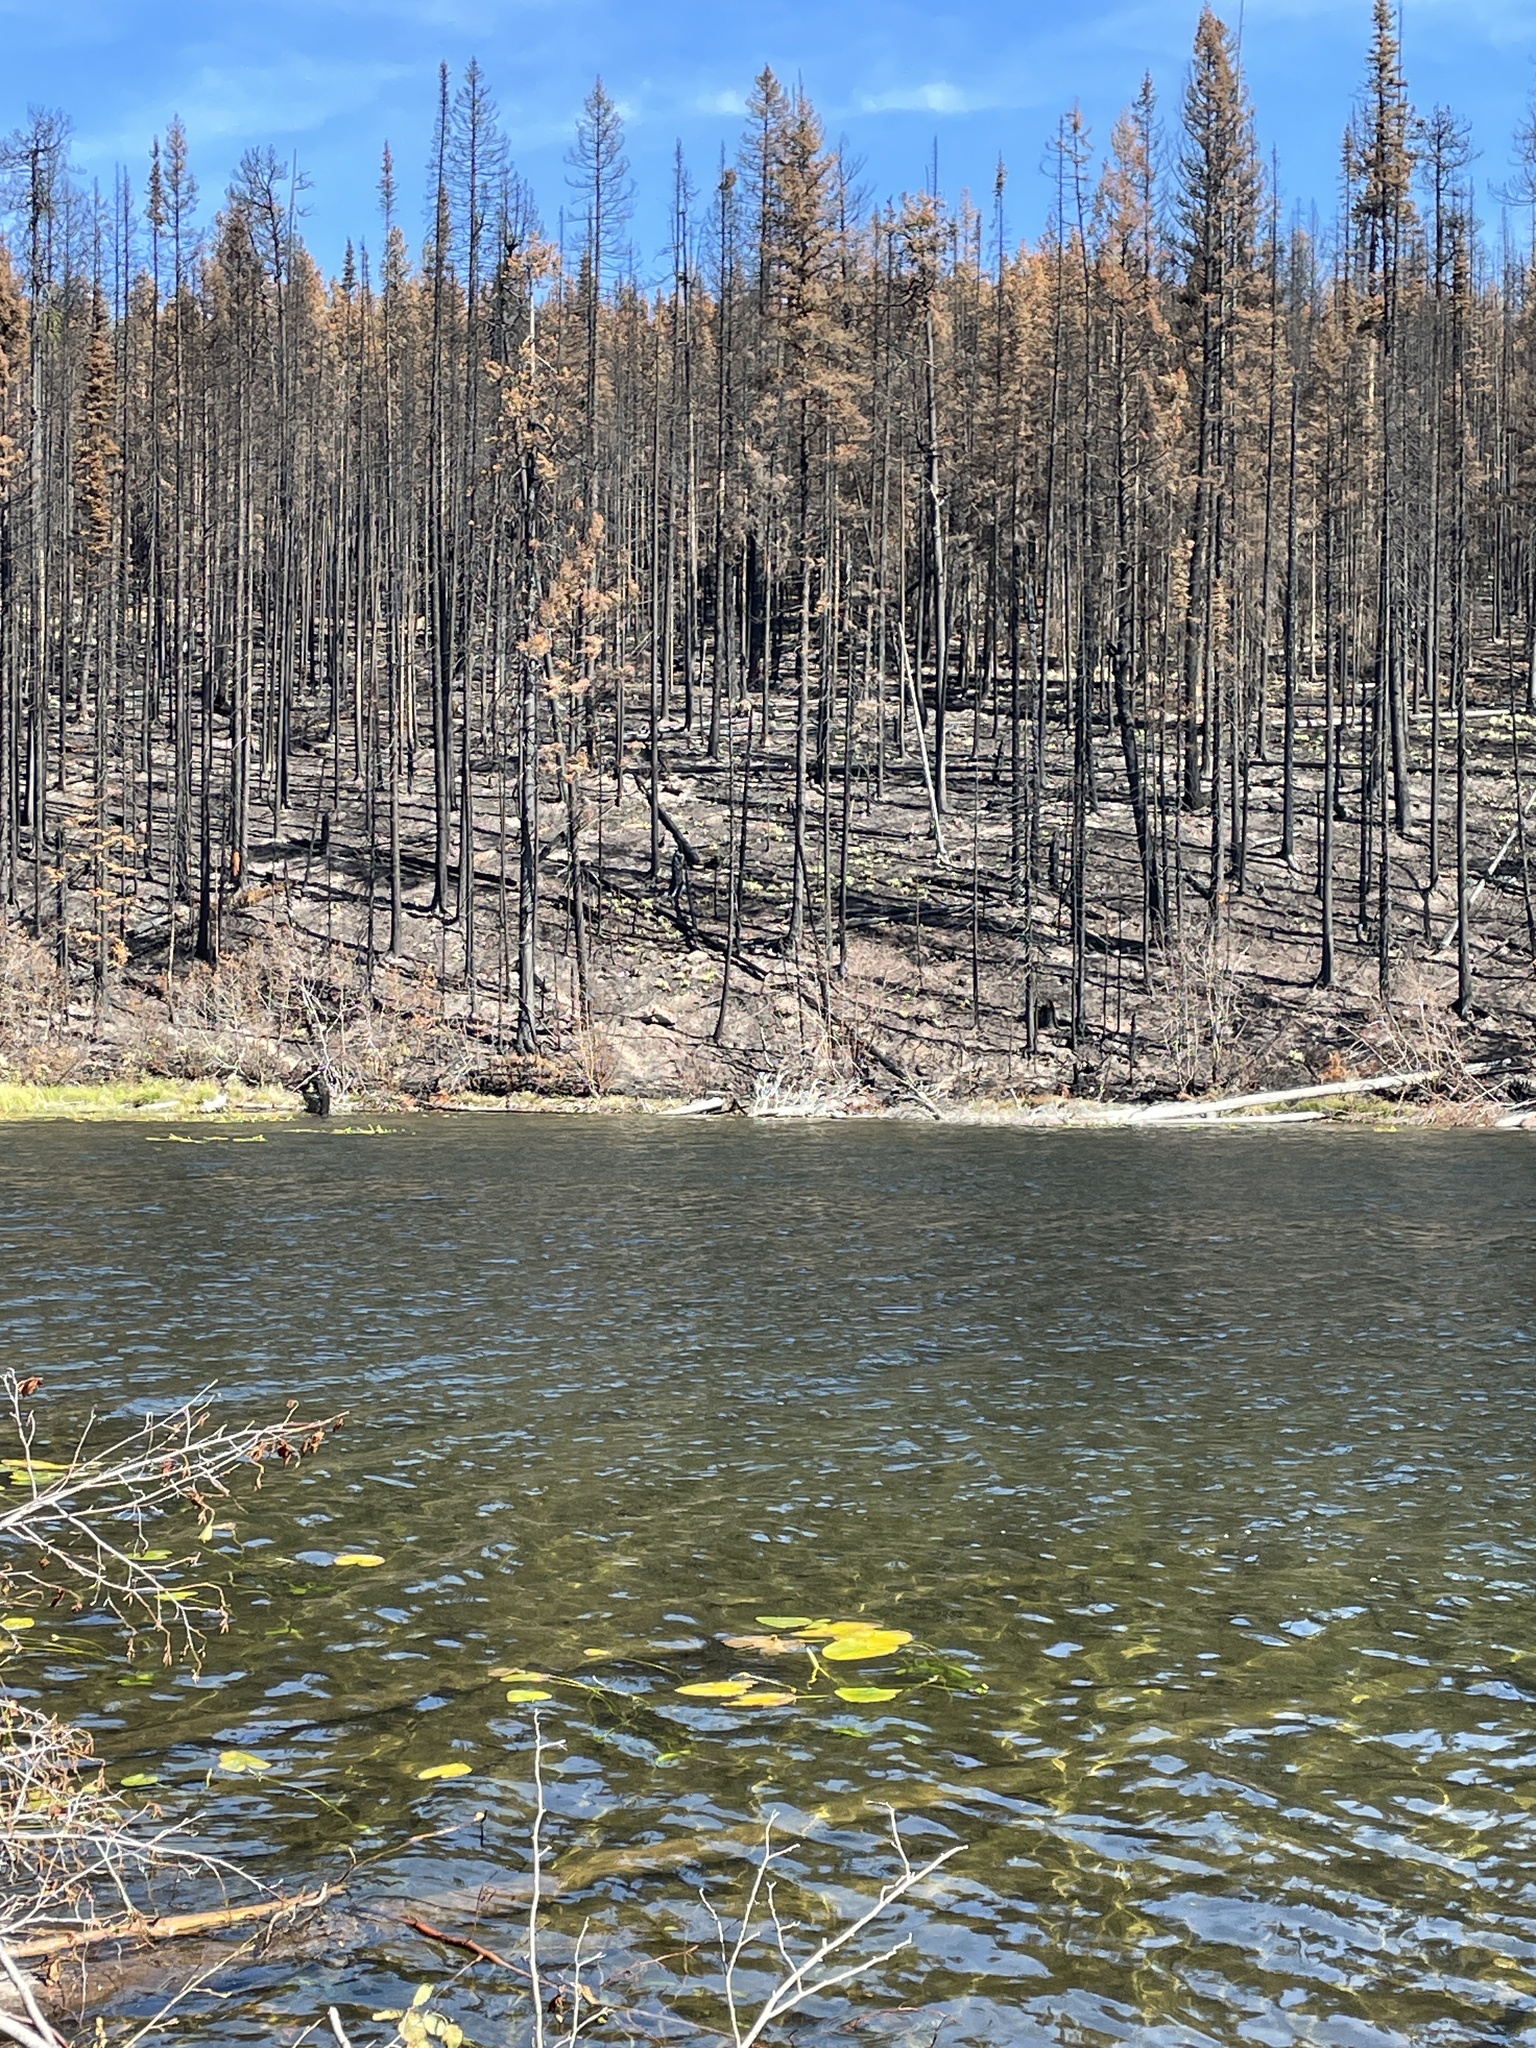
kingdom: Plantae
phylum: Tracheophyta
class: Magnoliopsida
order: Nymphaeales
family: Nymphaeaceae
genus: Nuphar
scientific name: Nuphar polysepala
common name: Rocky mountain cow-lily
